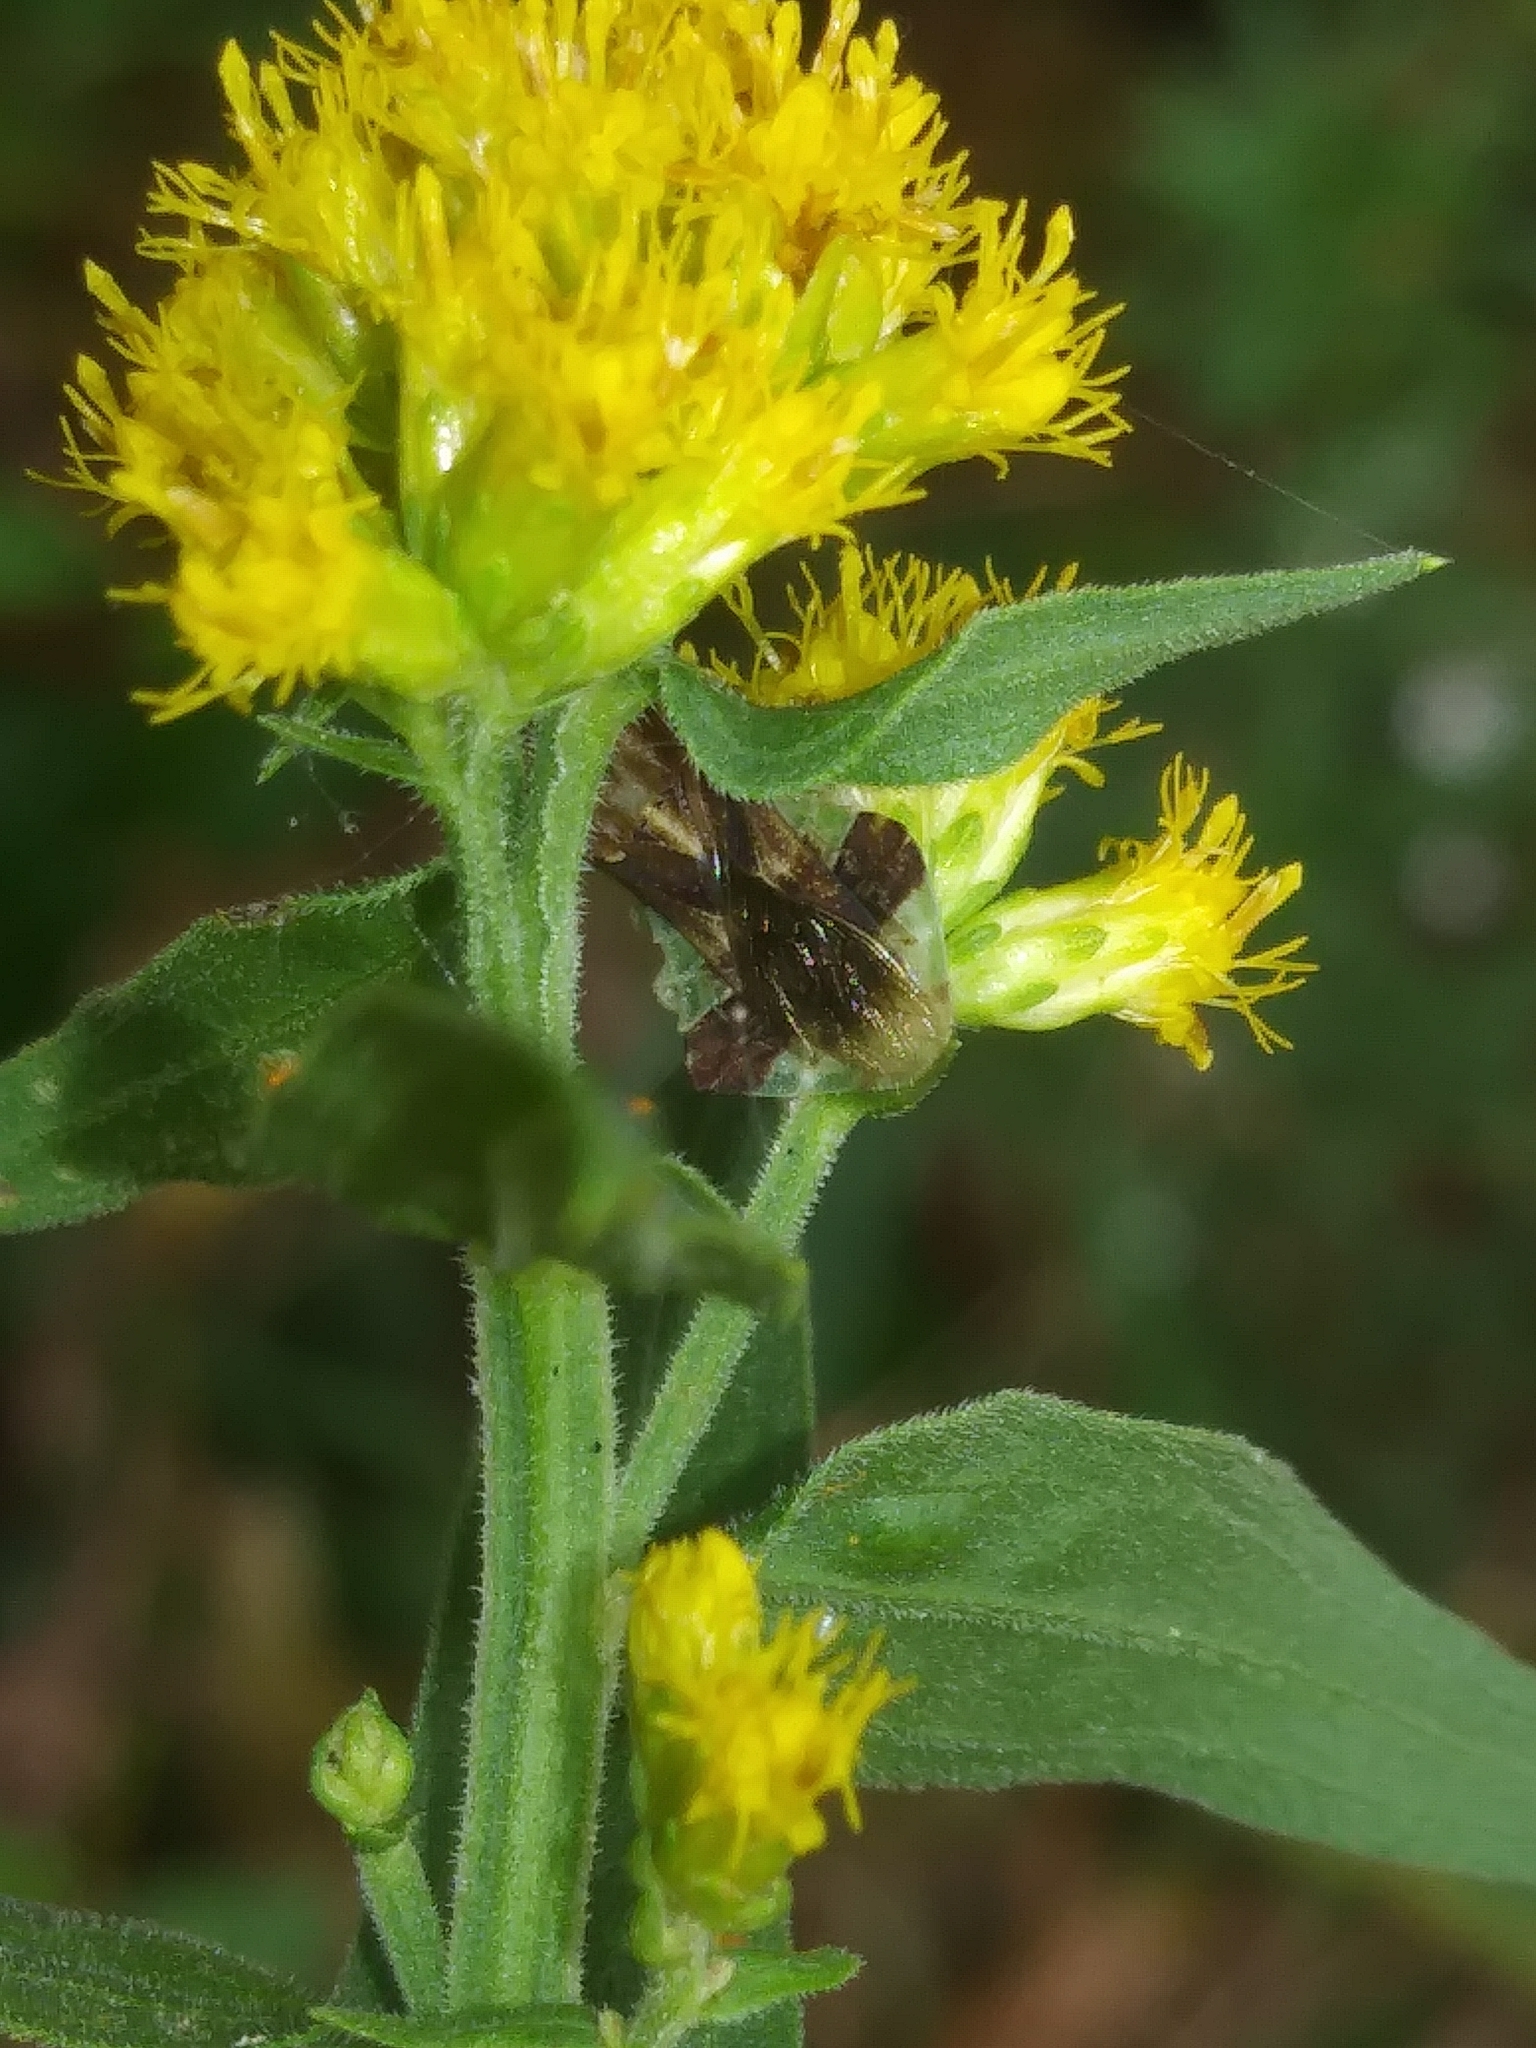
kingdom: Animalia
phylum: Arthropoda
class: Insecta
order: Hemiptera
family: Reduviidae
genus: Phymata
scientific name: Phymata fasciata
